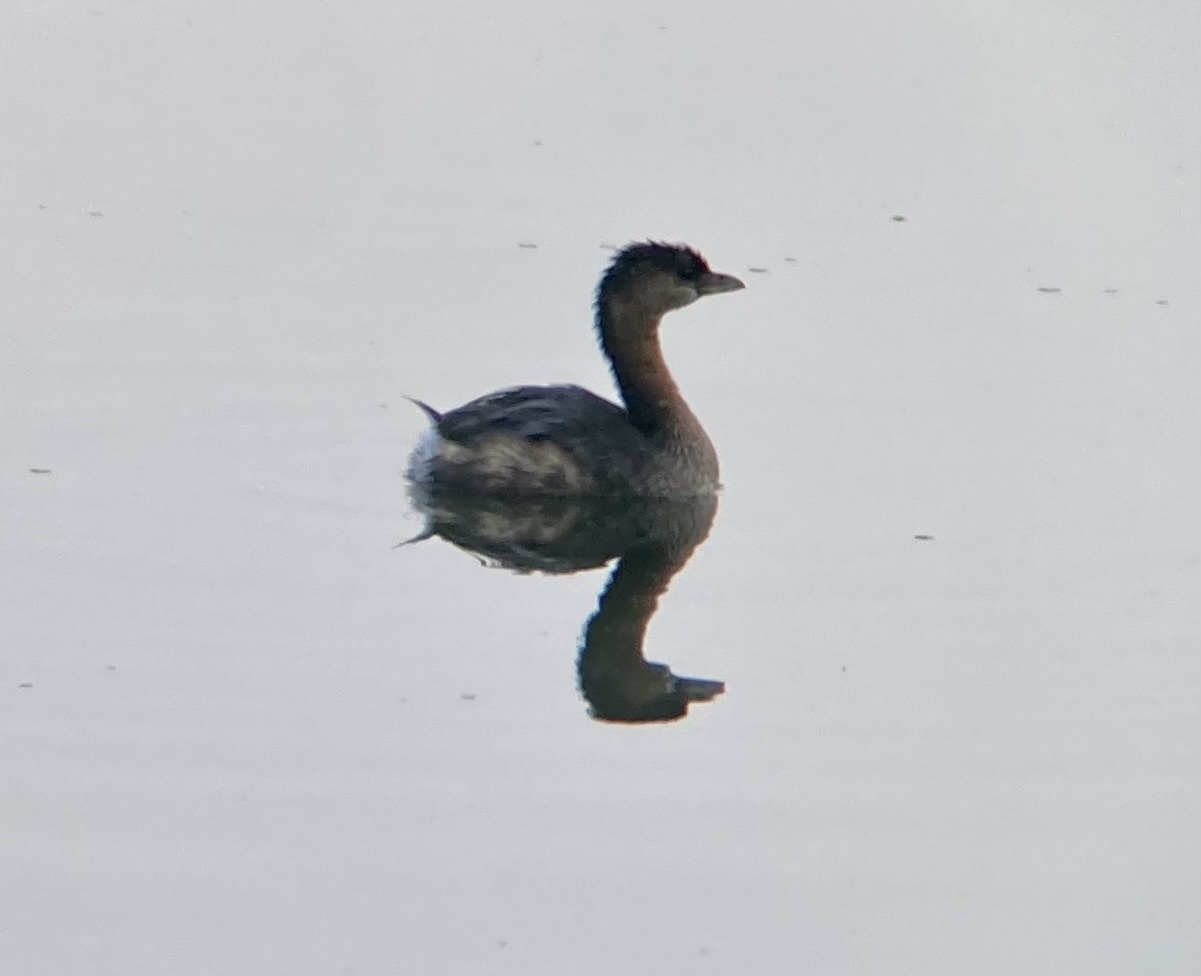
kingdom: Animalia
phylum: Chordata
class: Aves
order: Podicipediformes
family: Podicipedidae
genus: Podilymbus
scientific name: Podilymbus podiceps
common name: Pied-billed grebe
